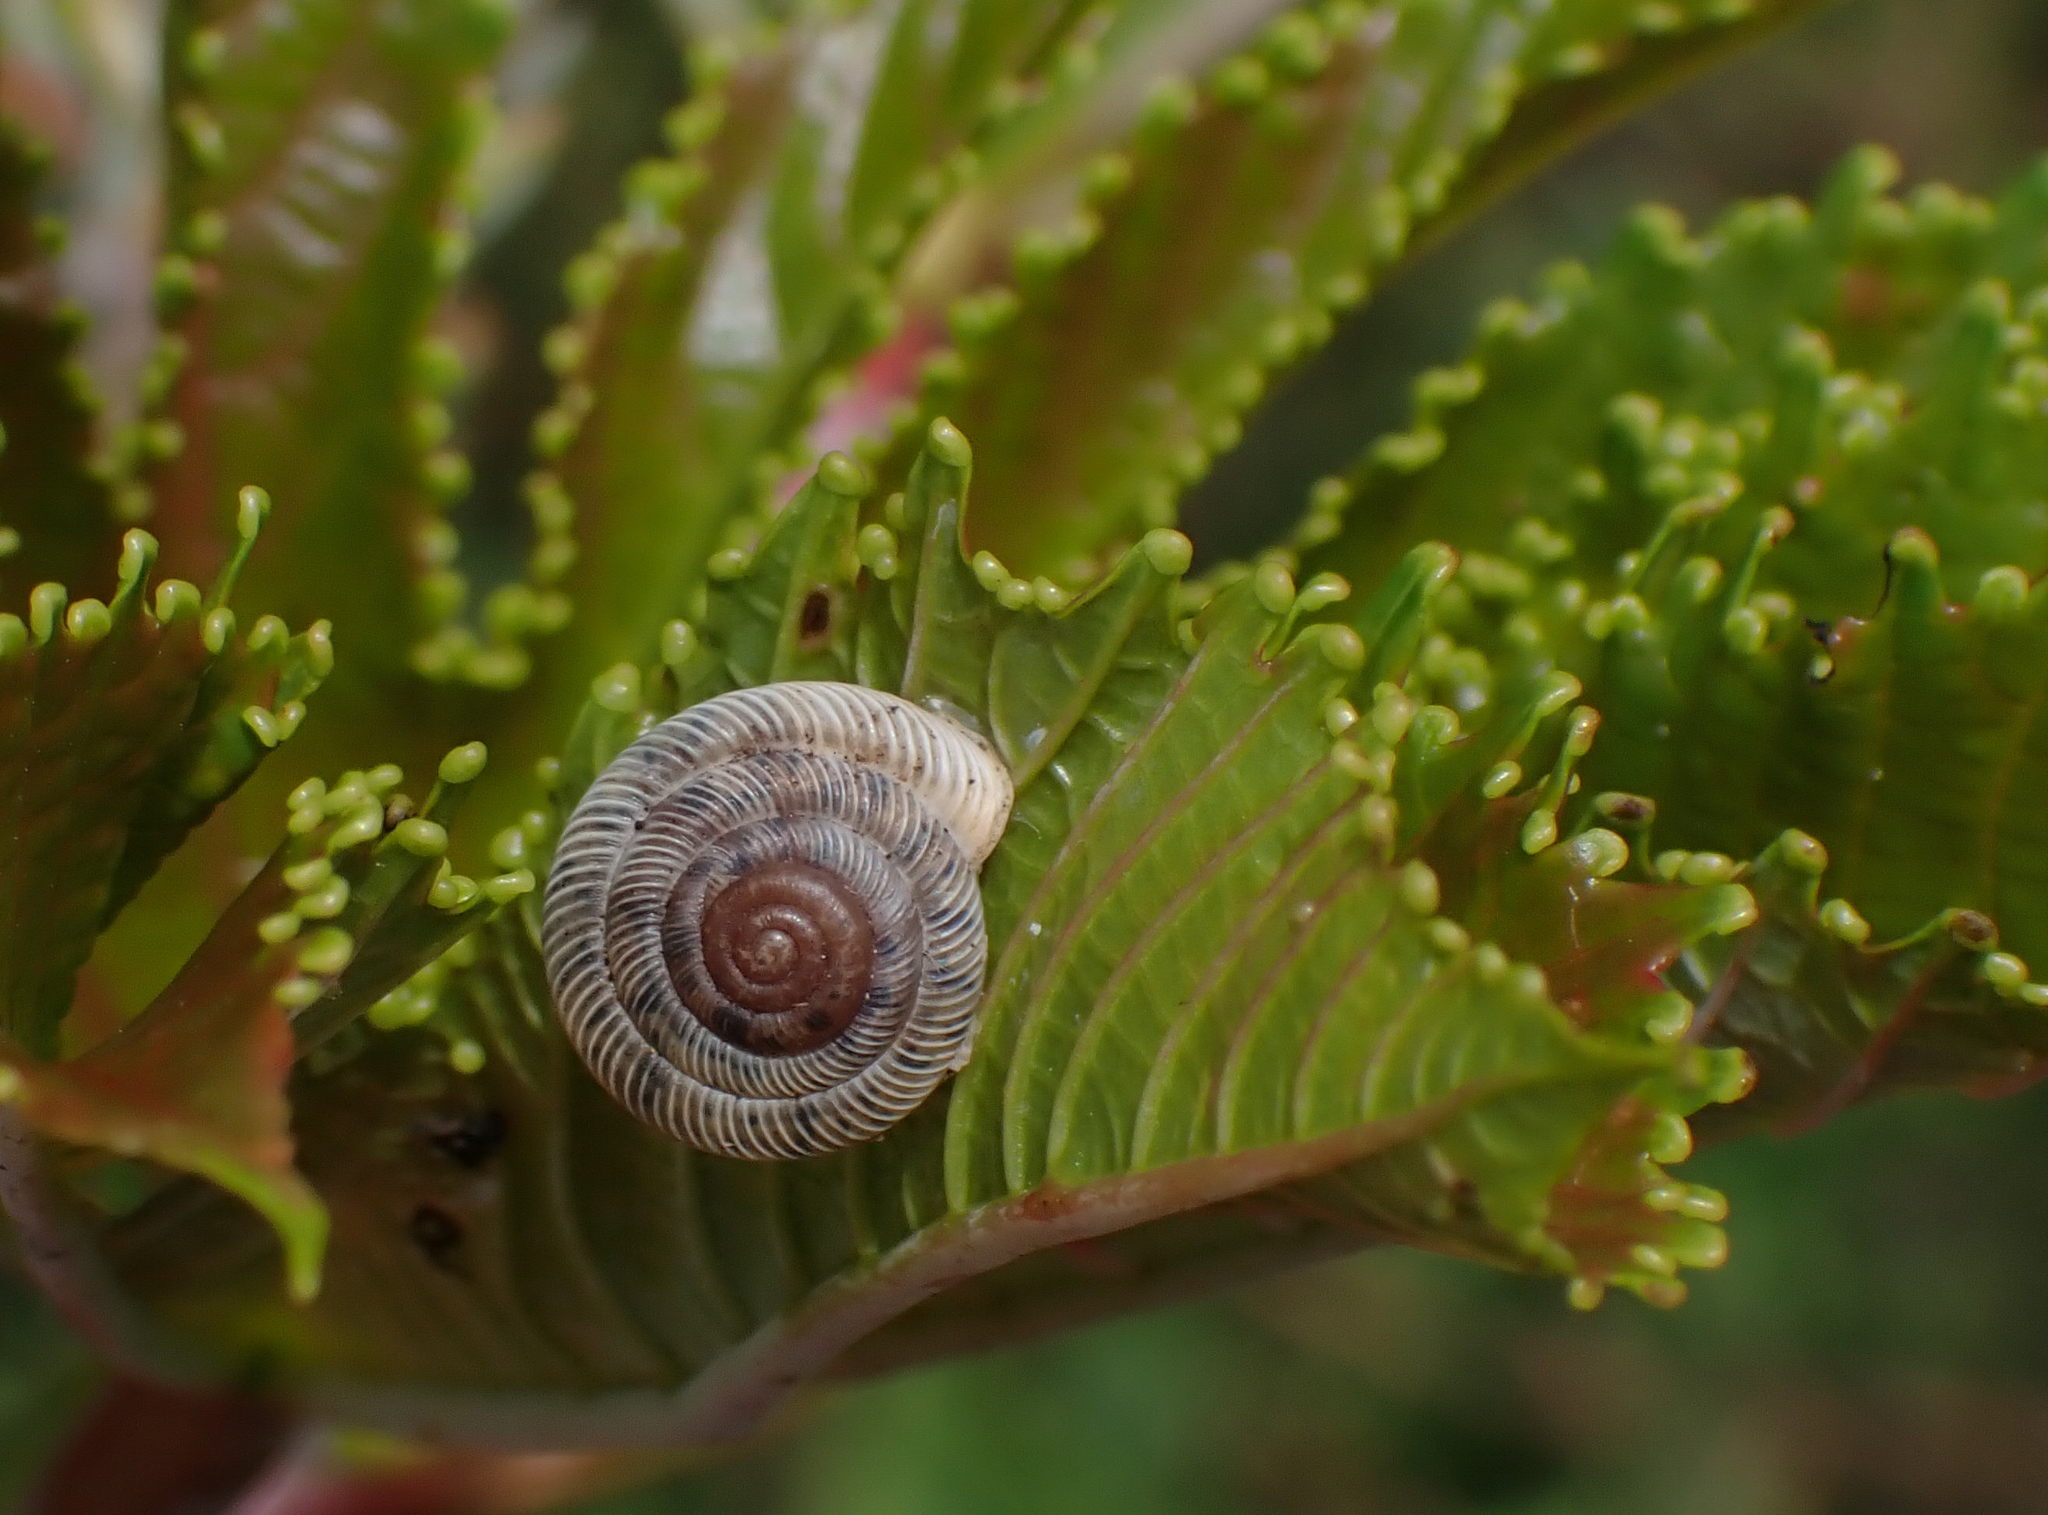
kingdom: Animalia
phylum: Mollusca
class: Gastropoda
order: Stylommatophora
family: Polygyridae
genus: Polygyra
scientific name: Polygyra cereolus
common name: Southern flatcone snail
